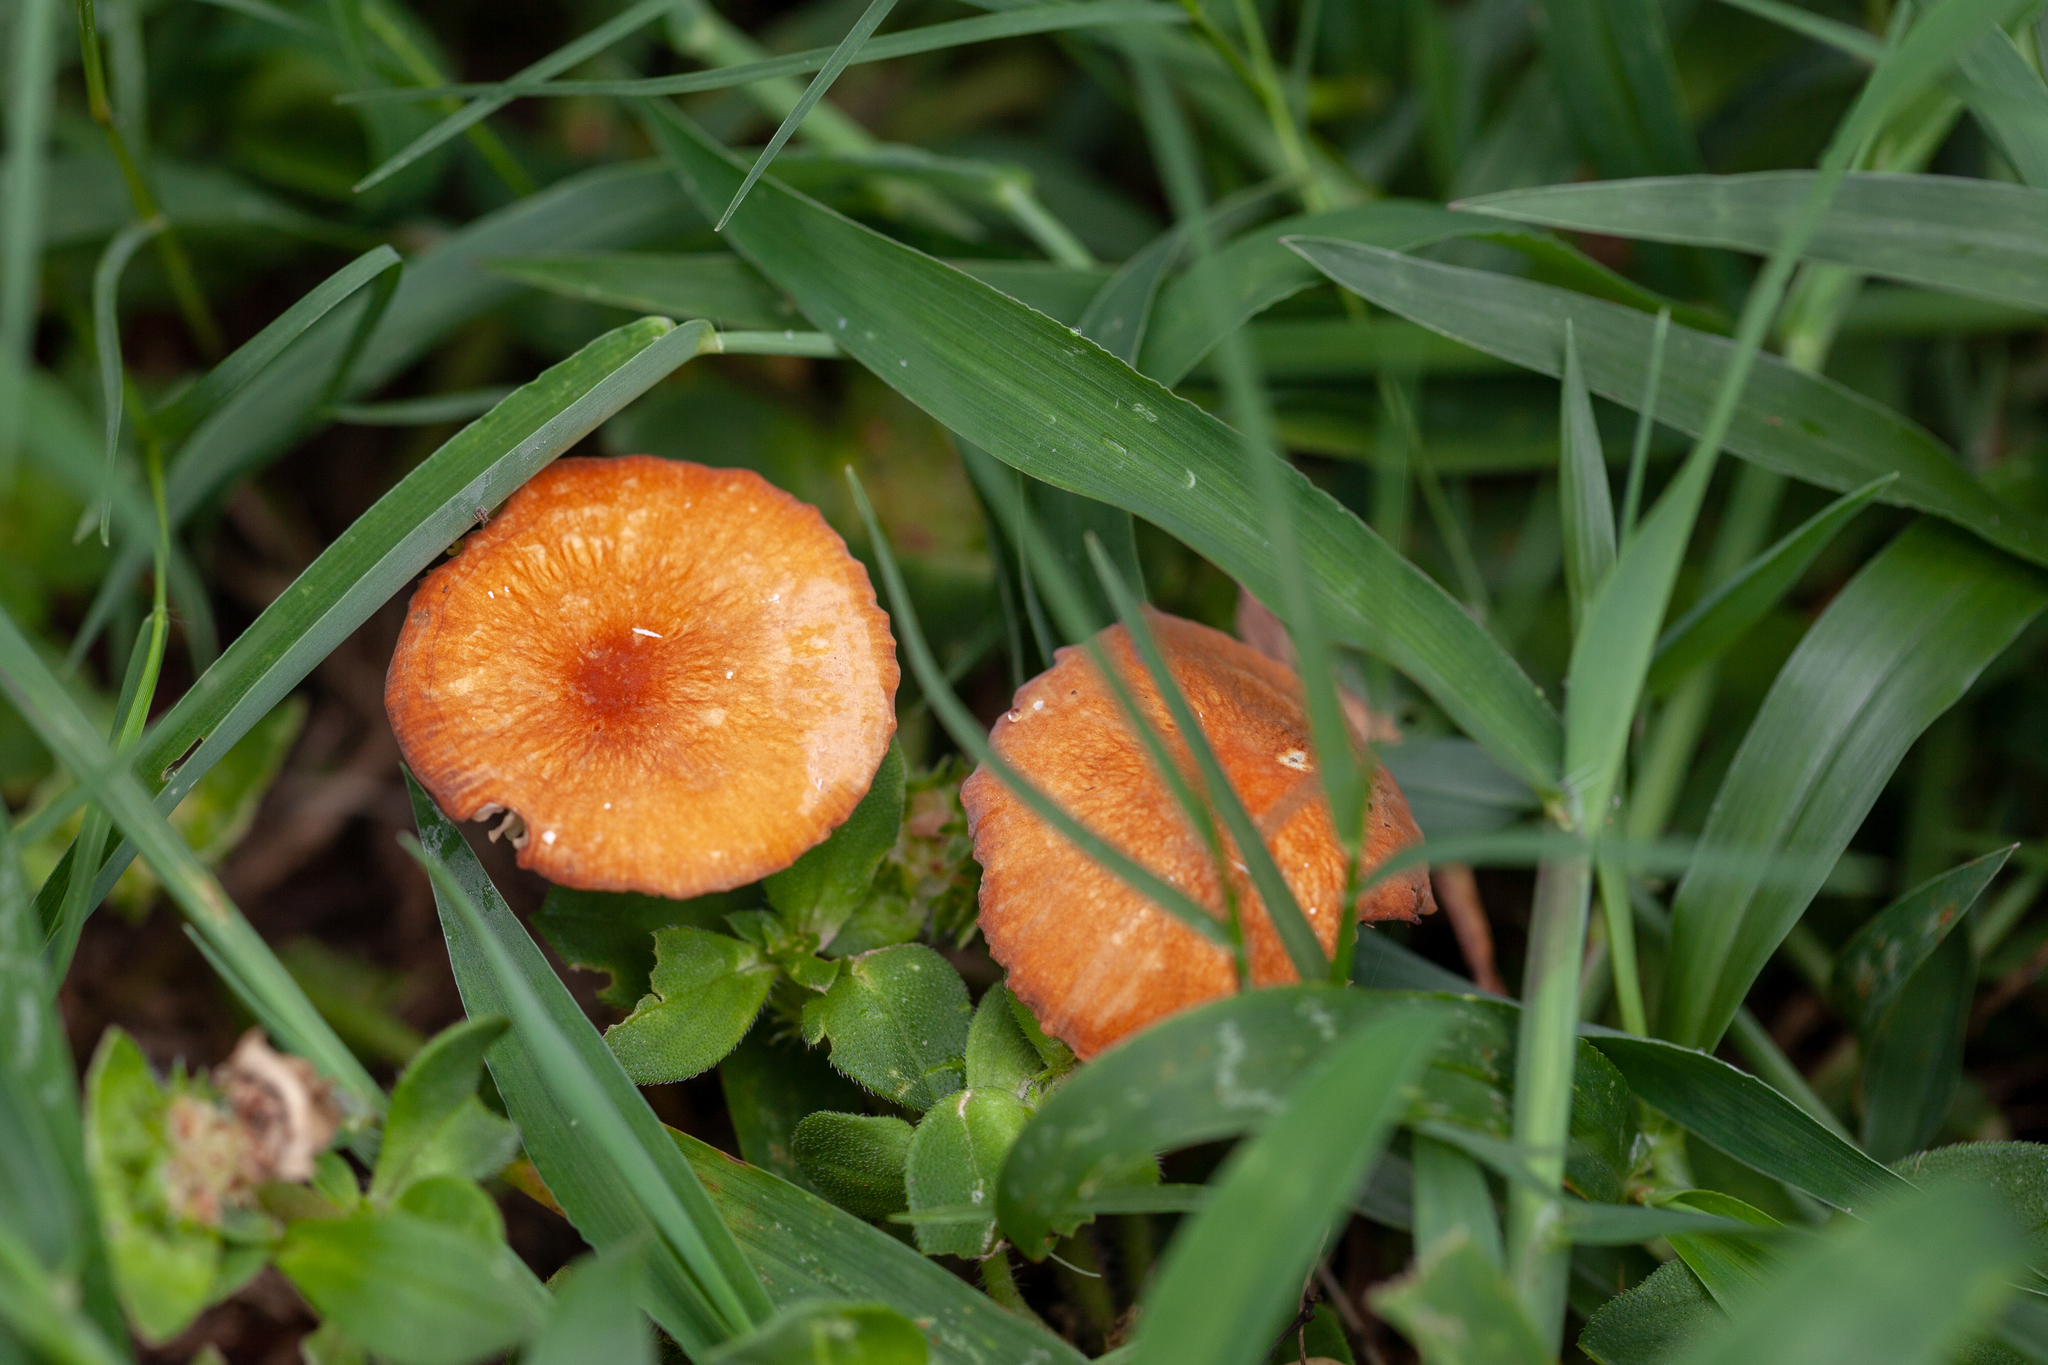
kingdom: Fungi
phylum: Basidiomycota
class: Agaricomycetes
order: Agaricales
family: Marasmiaceae
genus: Marasmius
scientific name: Marasmius vagus
